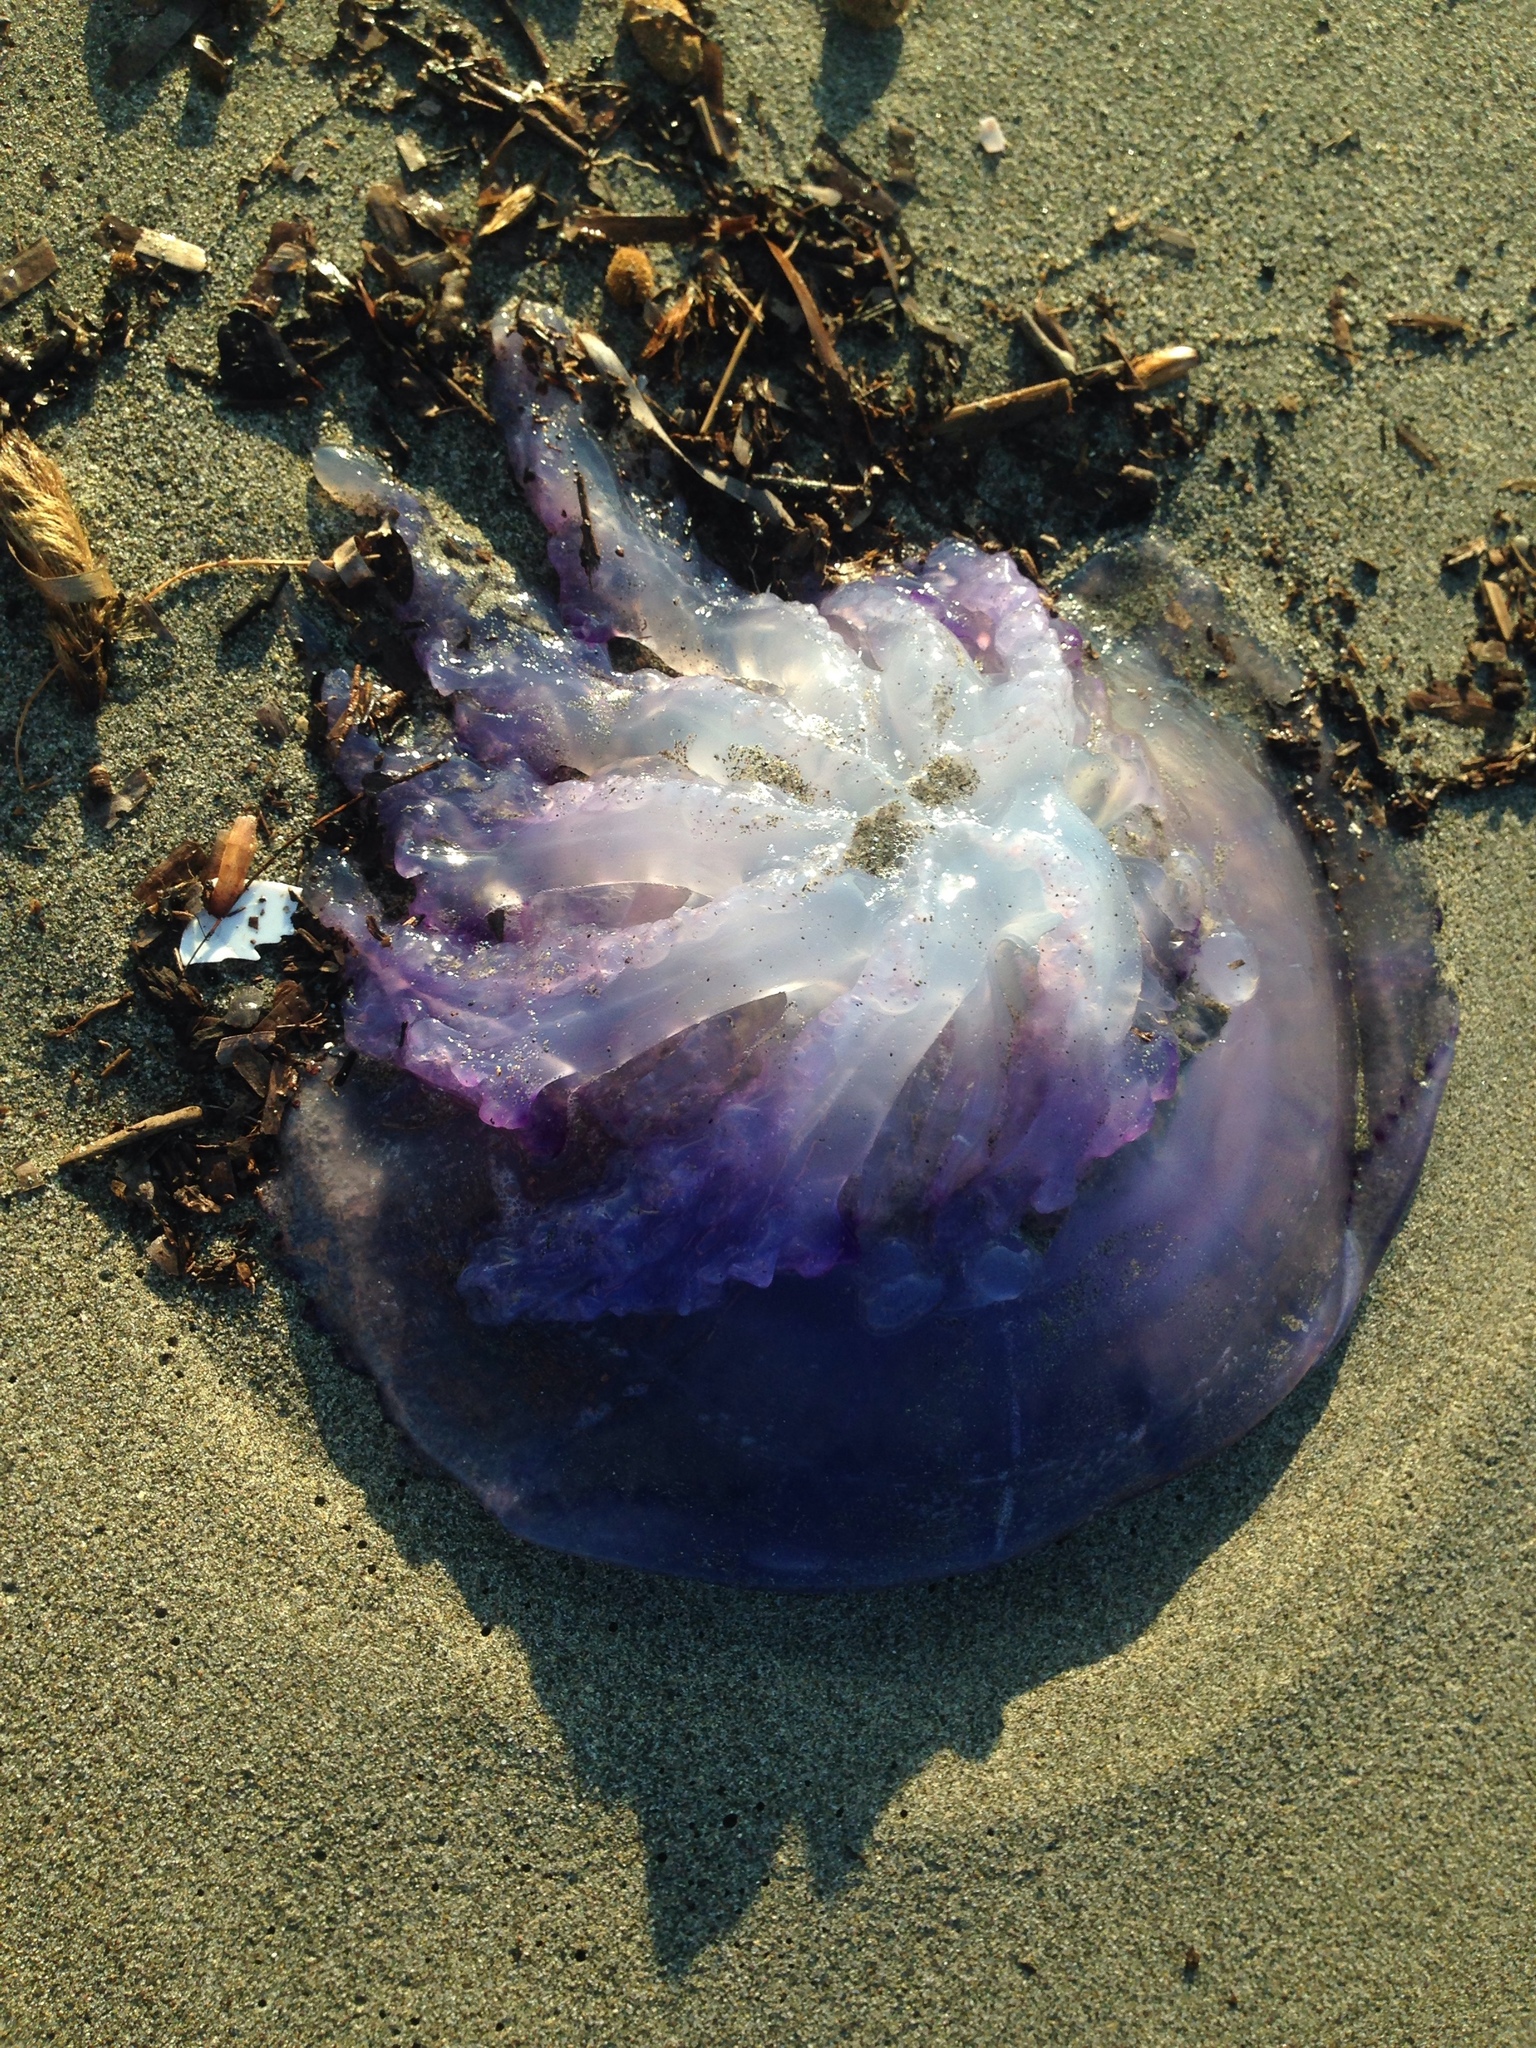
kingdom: Animalia
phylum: Cnidaria
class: Scyphozoa
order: Rhizostomeae
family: Rhizostomatidae
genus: Rhizostoma
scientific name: Rhizostoma pulmo
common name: Barrel jellyfish
